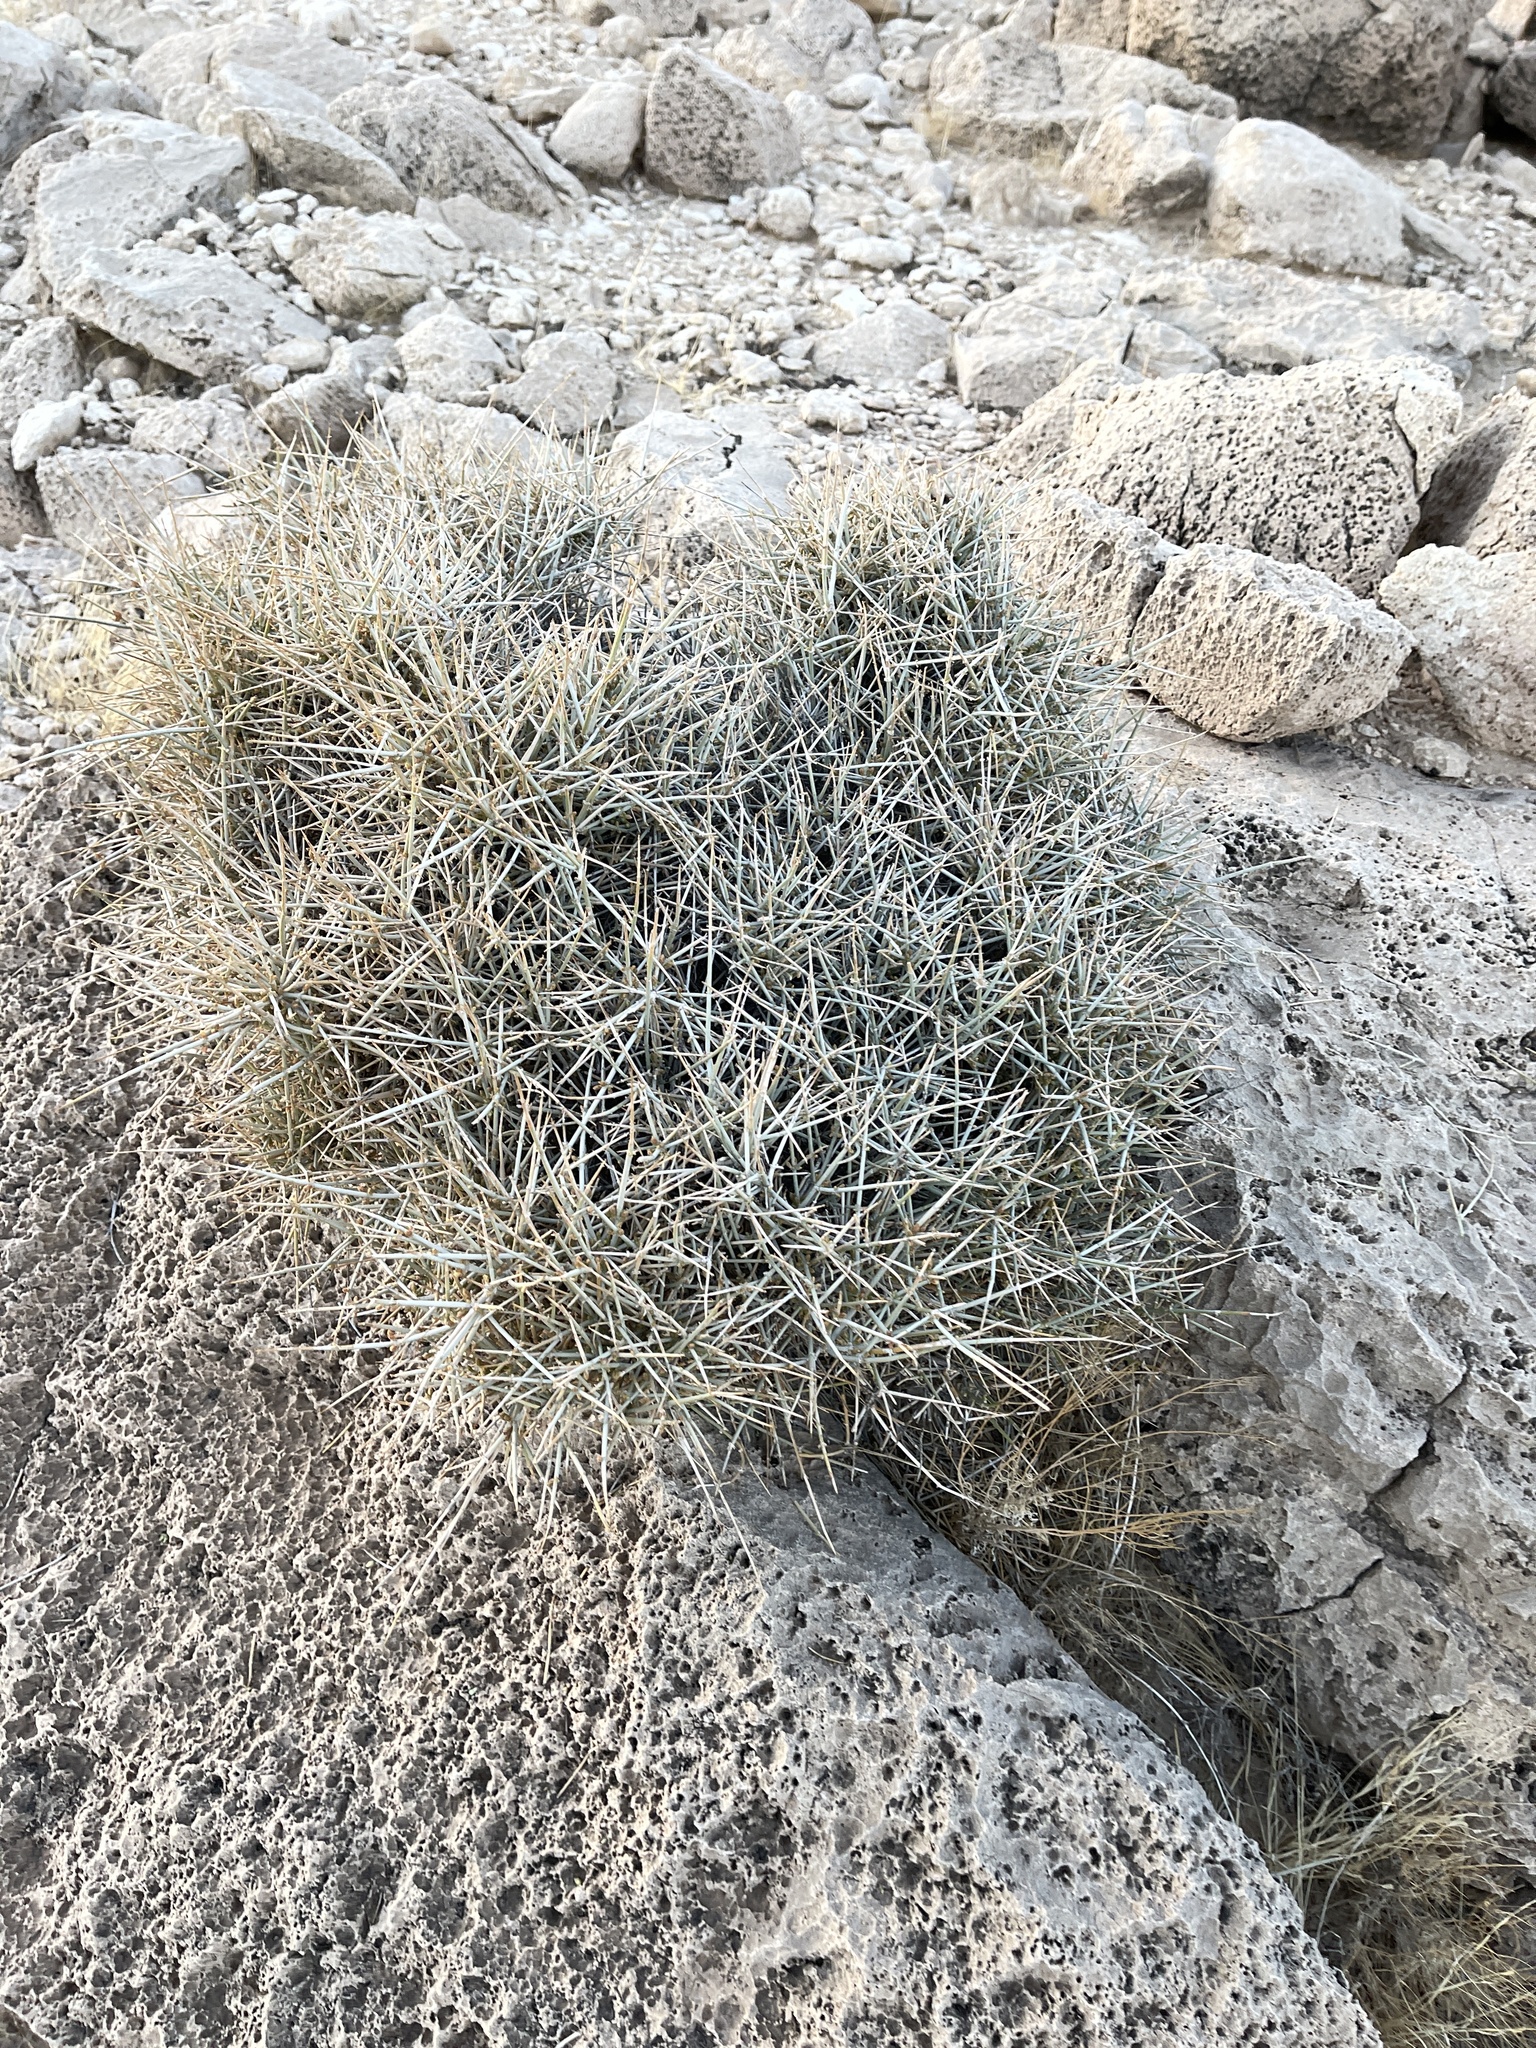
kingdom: Plantae
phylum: Tracheophyta
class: Gnetopsida
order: Ephedrales
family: Ephedraceae
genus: Ephedra
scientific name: Ephedra nevadensis
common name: Gray ephedra
